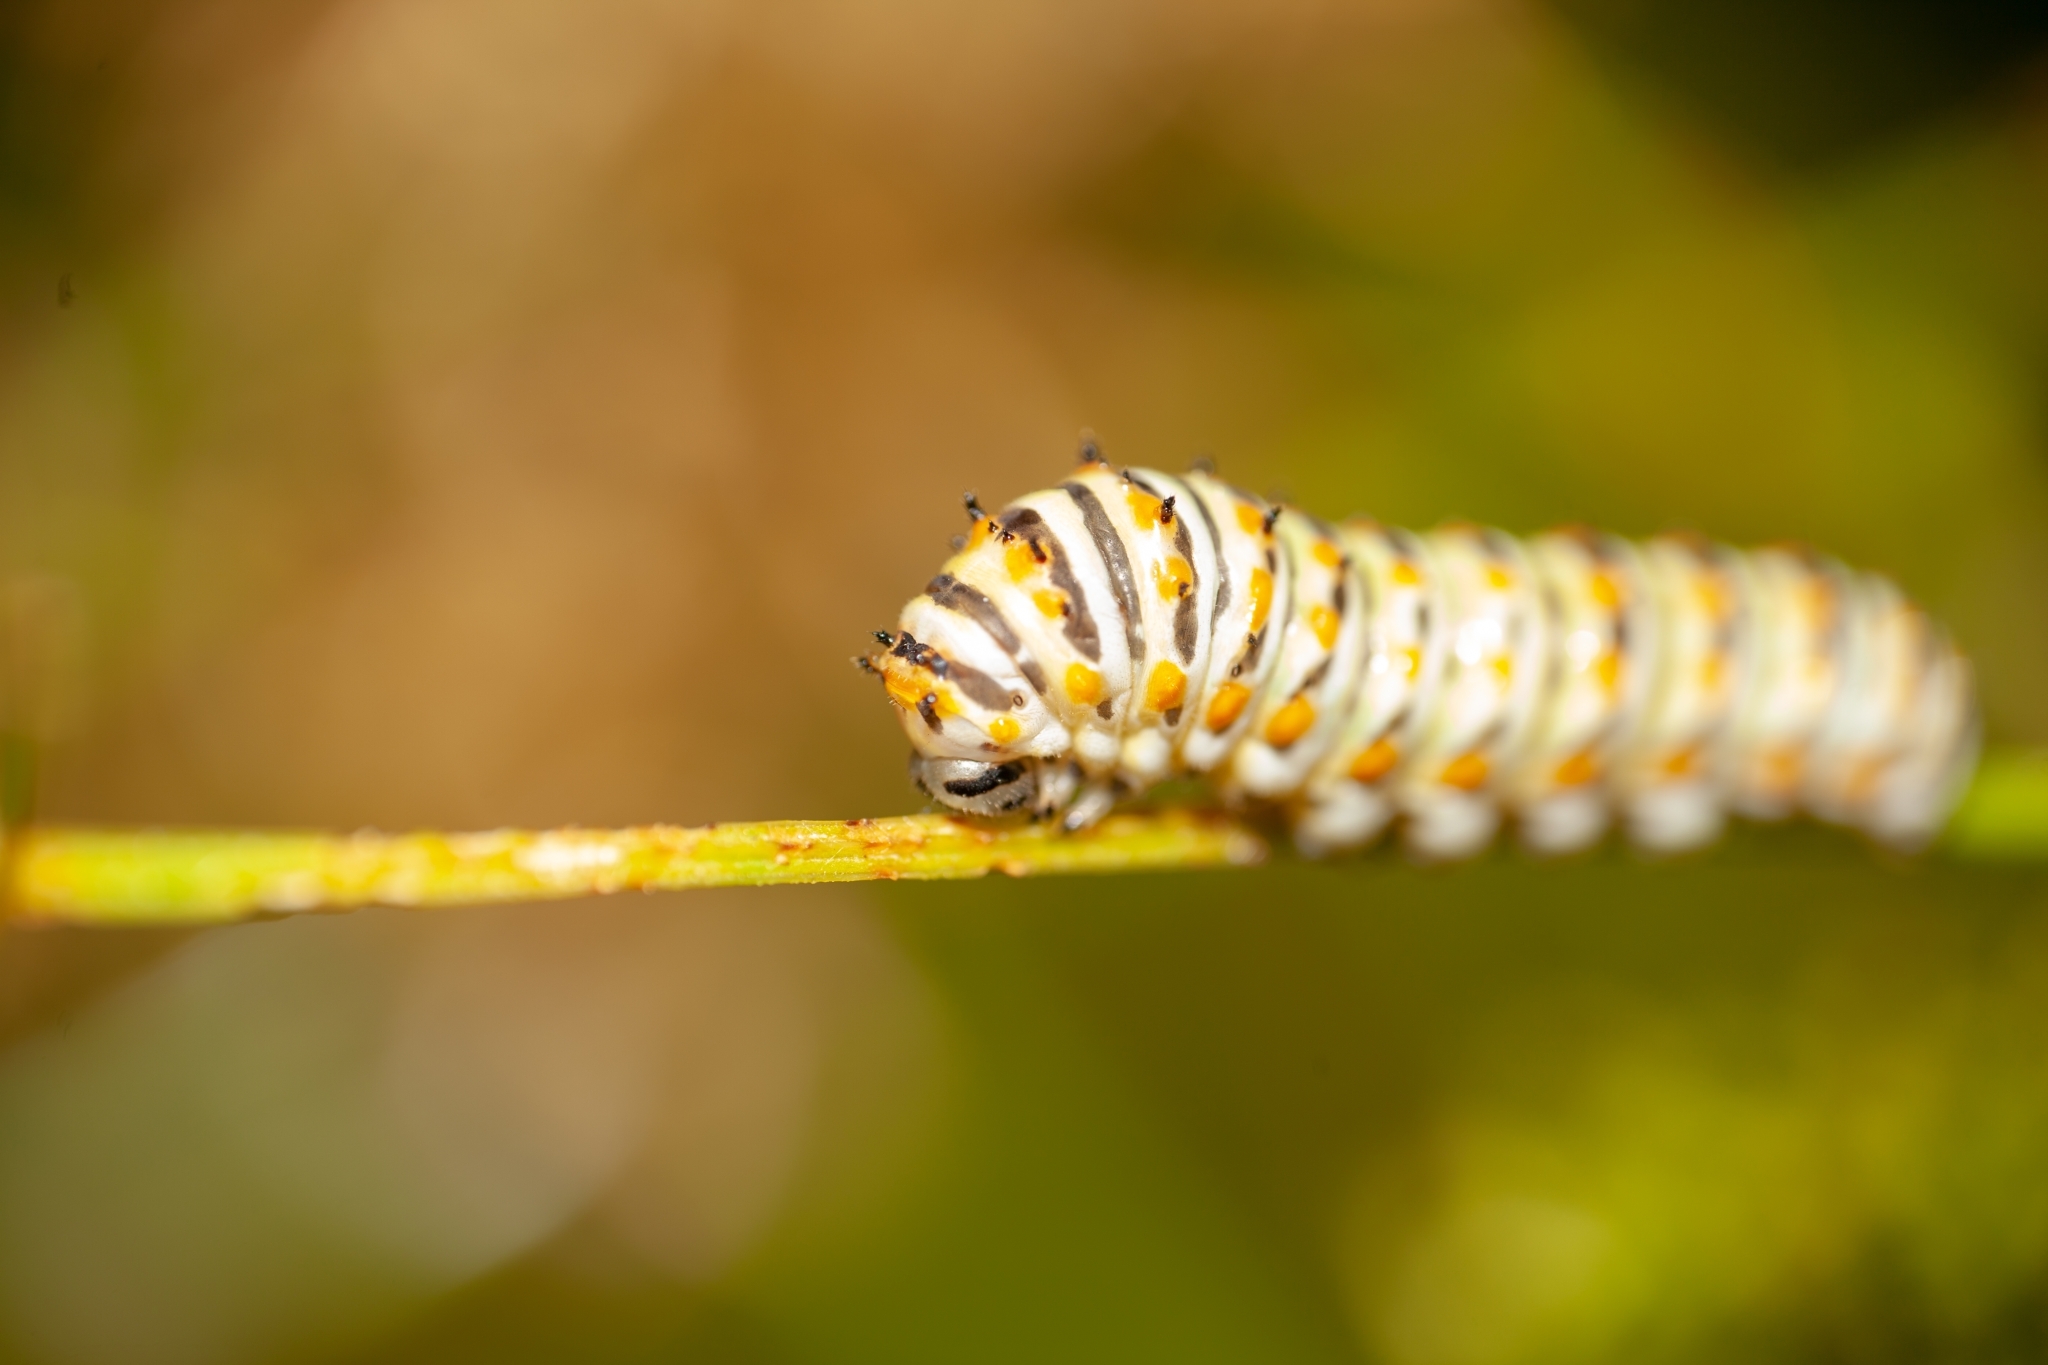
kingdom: Animalia
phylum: Arthropoda
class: Insecta
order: Lepidoptera
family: Papilionidae
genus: Papilio
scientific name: Papilio polyxenes
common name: Black swallowtail
